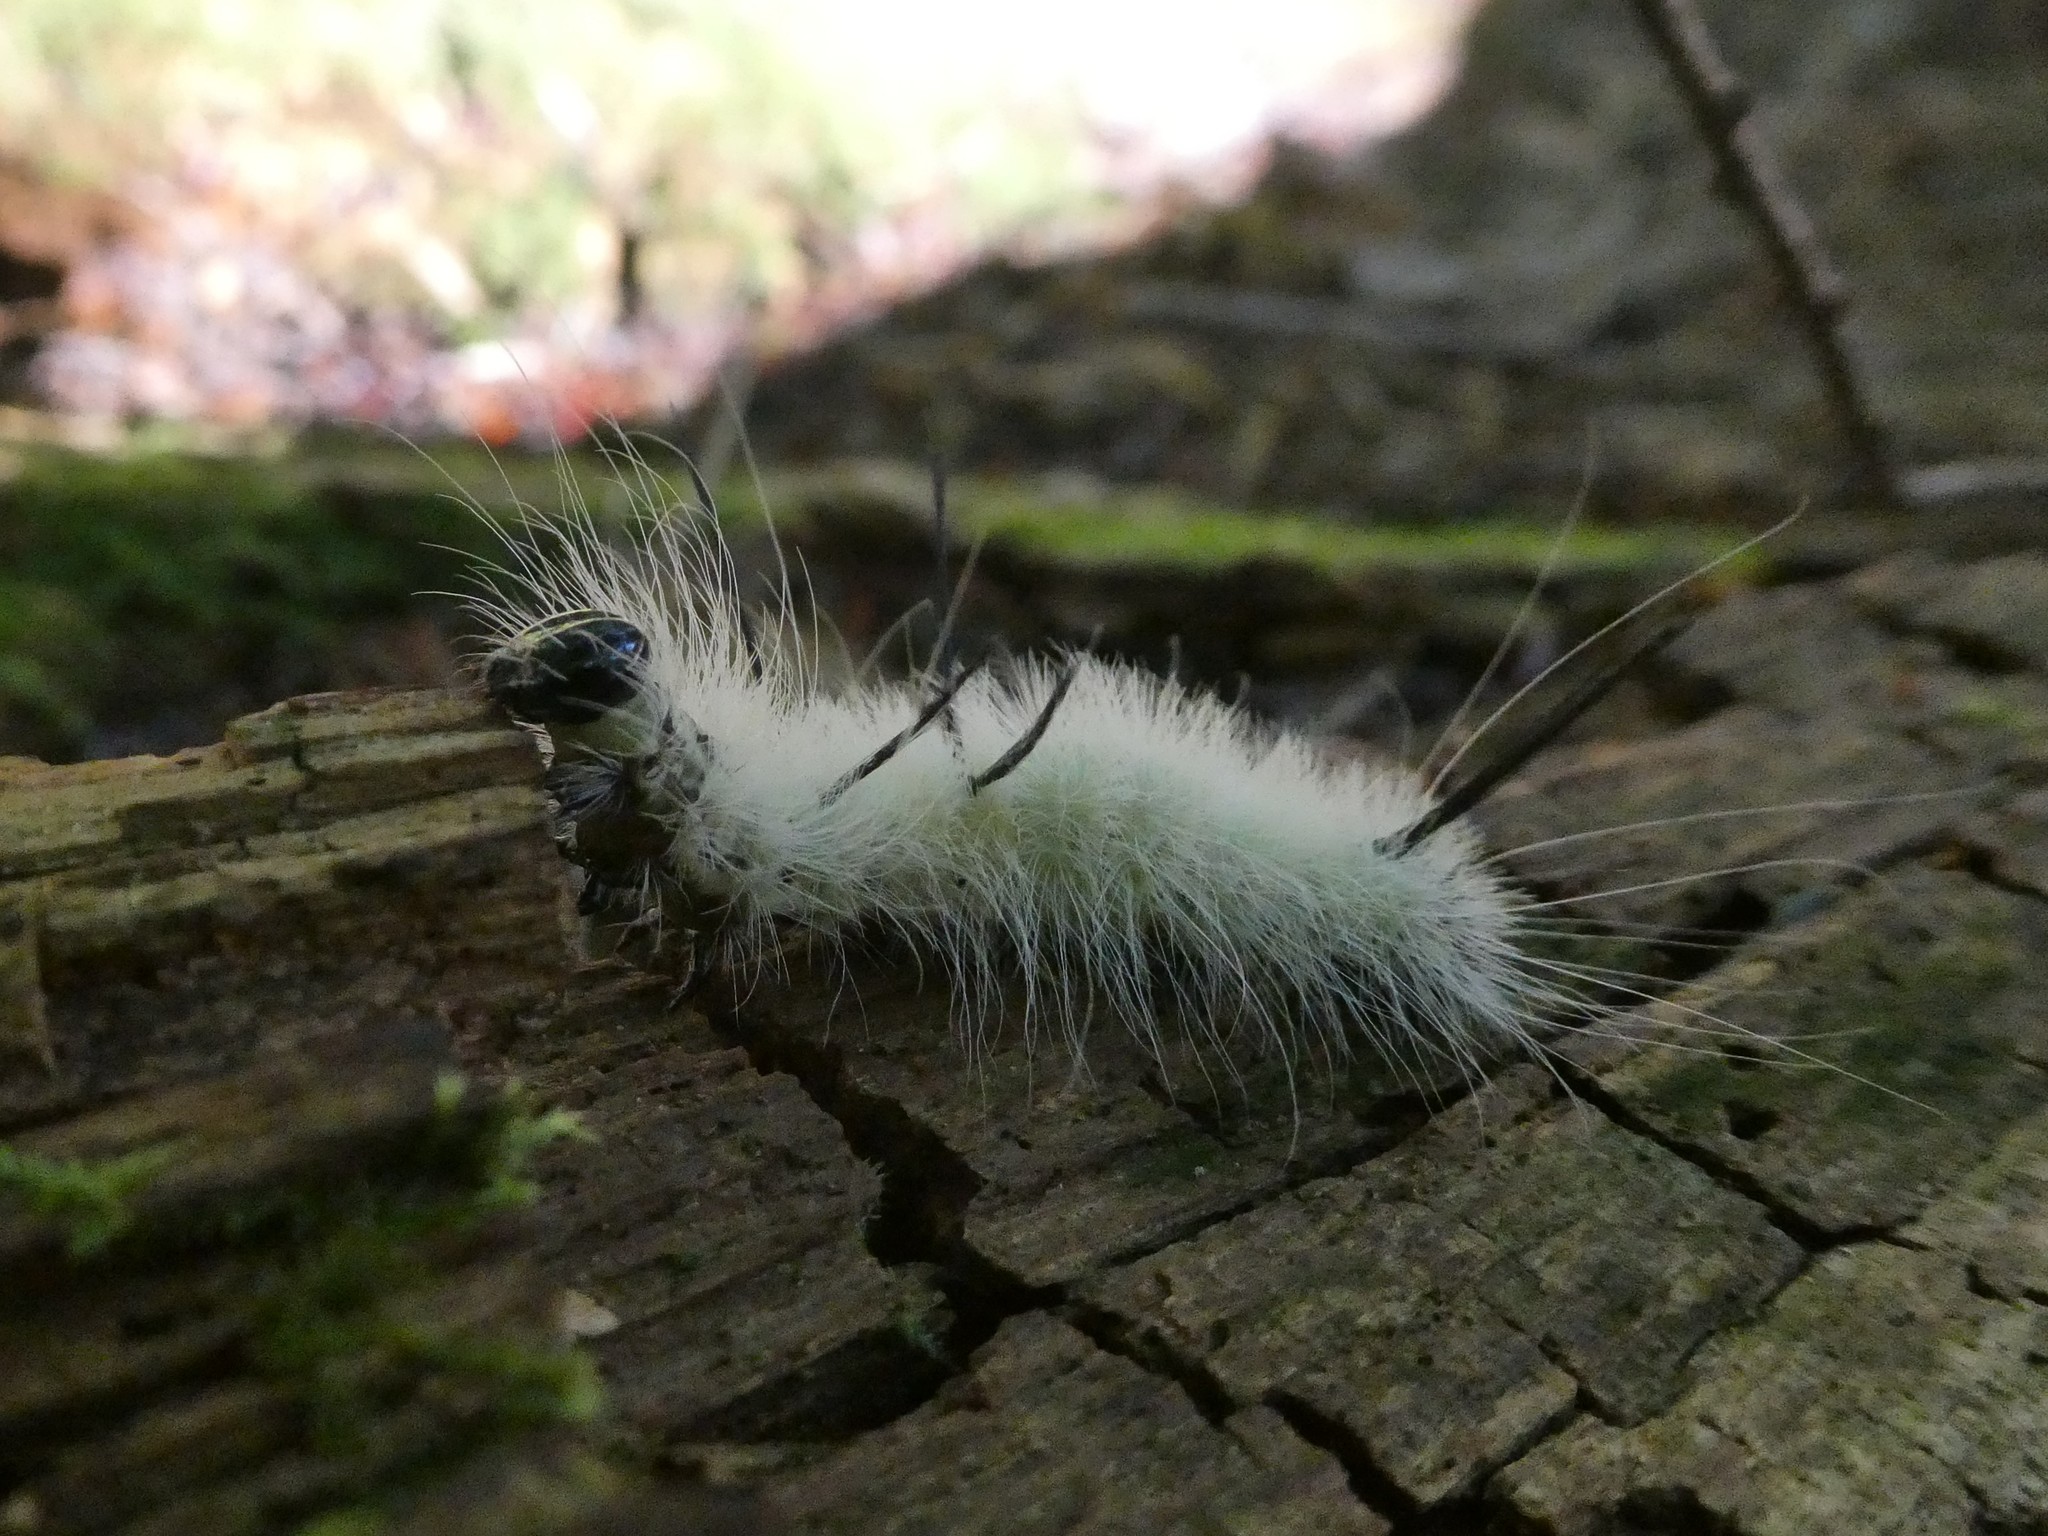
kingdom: Animalia
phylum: Arthropoda
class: Insecta
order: Lepidoptera
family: Noctuidae
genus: Acronicta
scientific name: Acronicta americana
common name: American dagger
